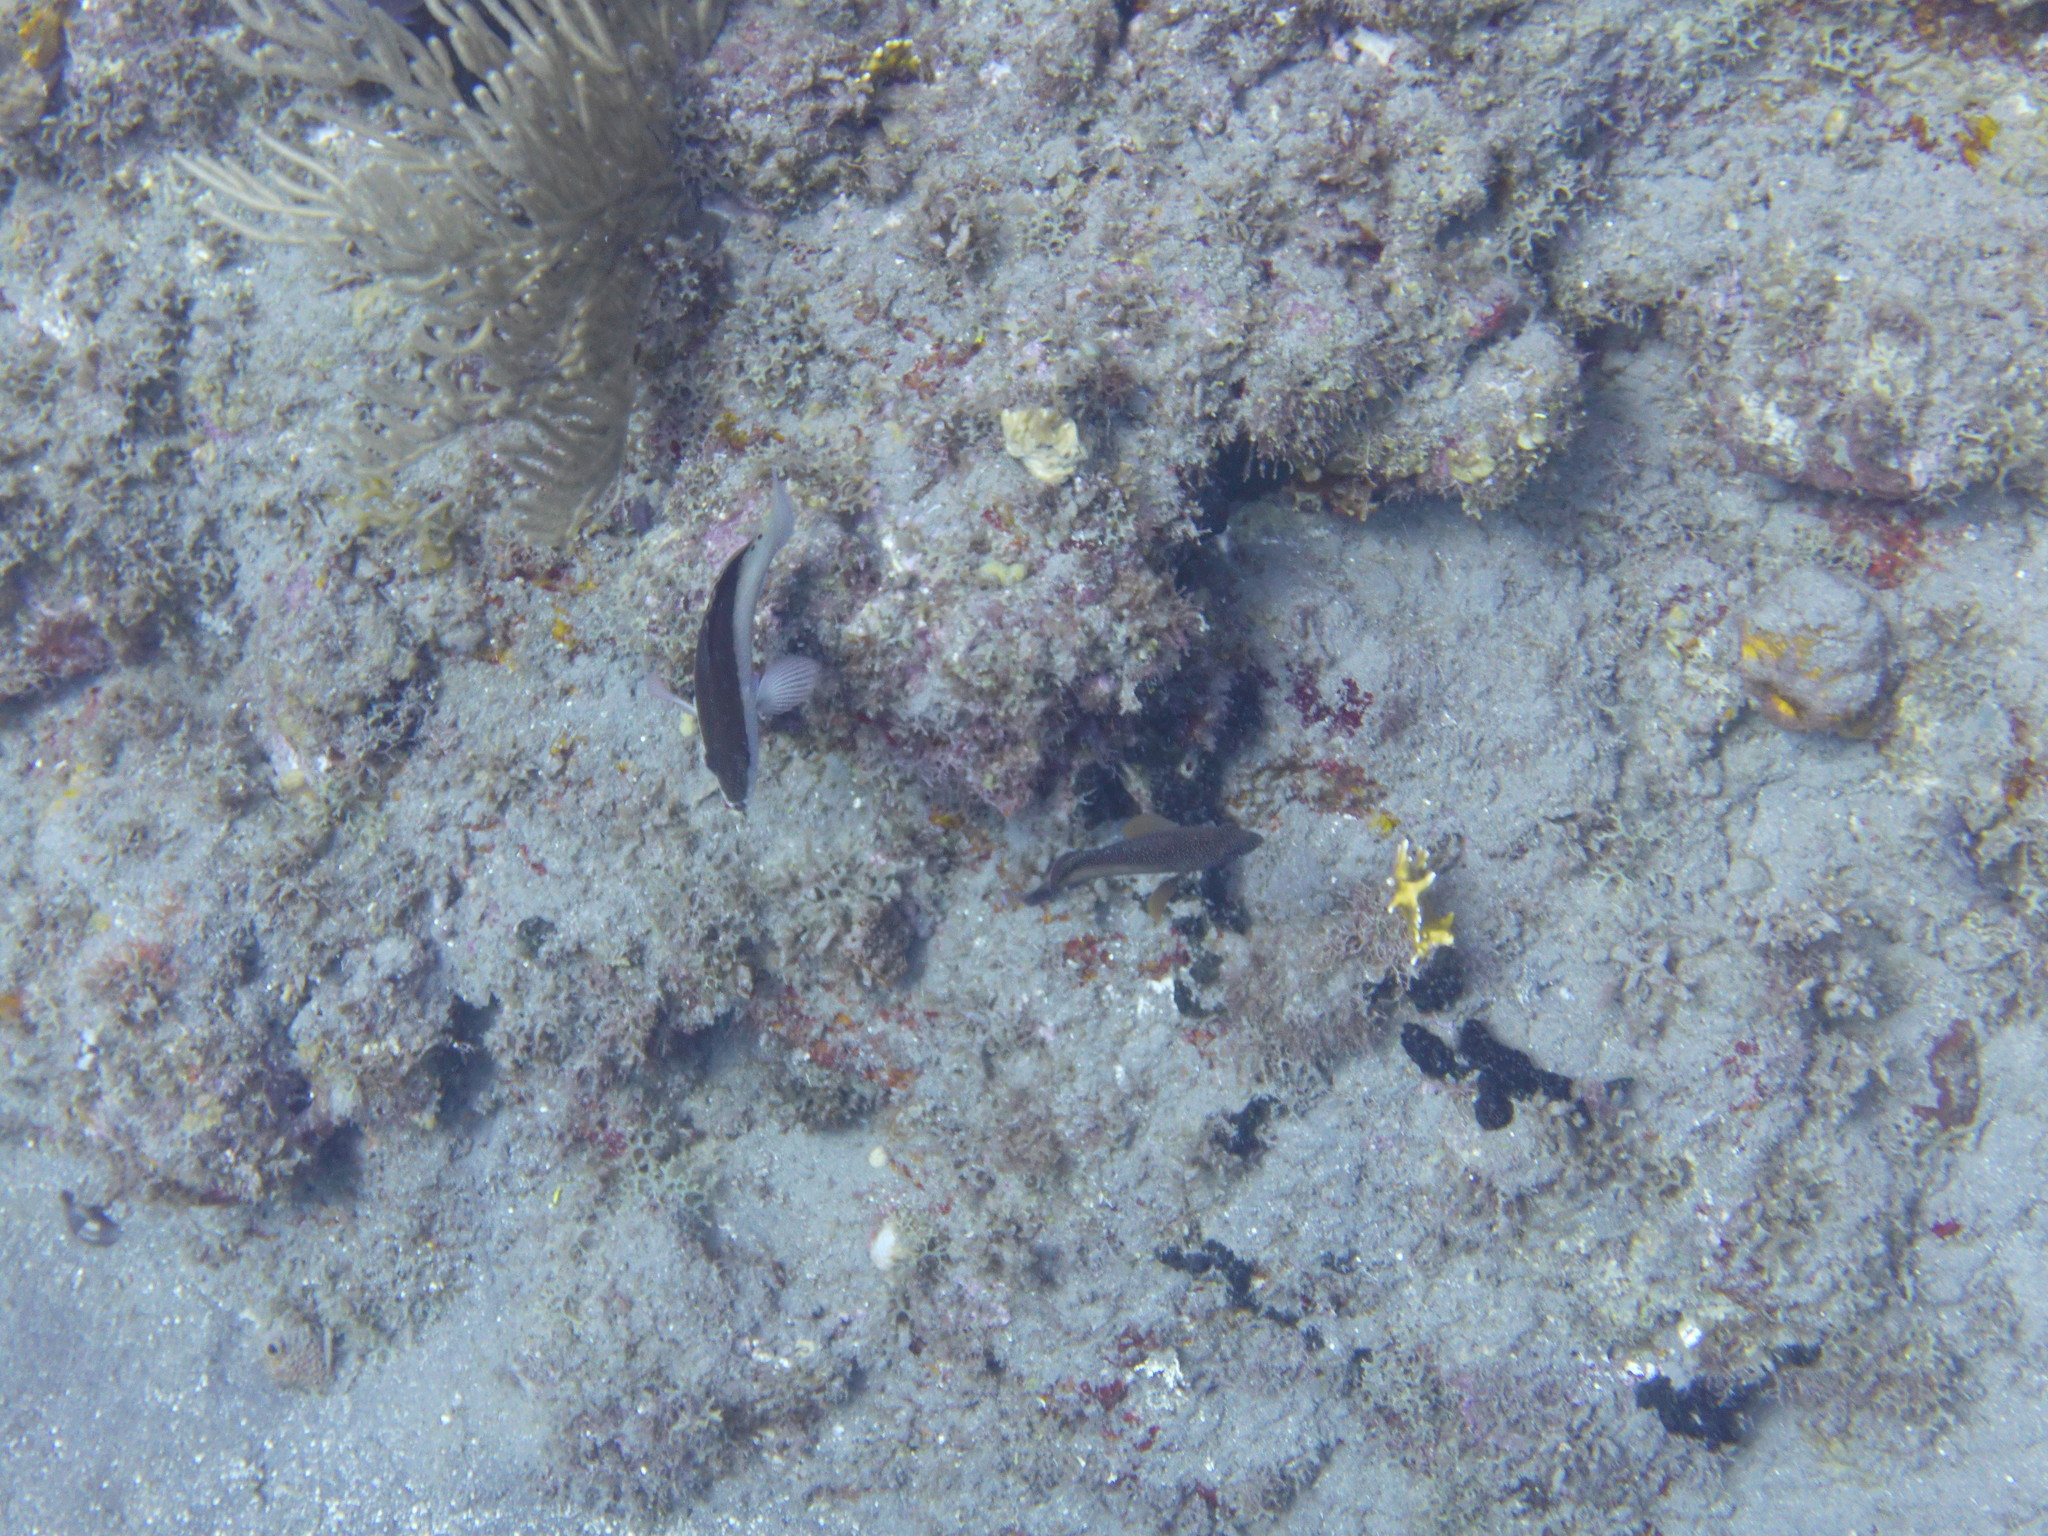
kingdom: Animalia
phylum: Chordata
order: Perciformes
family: Serranidae
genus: Cephalopholis
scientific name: Cephalopholis fulva
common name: Butterfish
